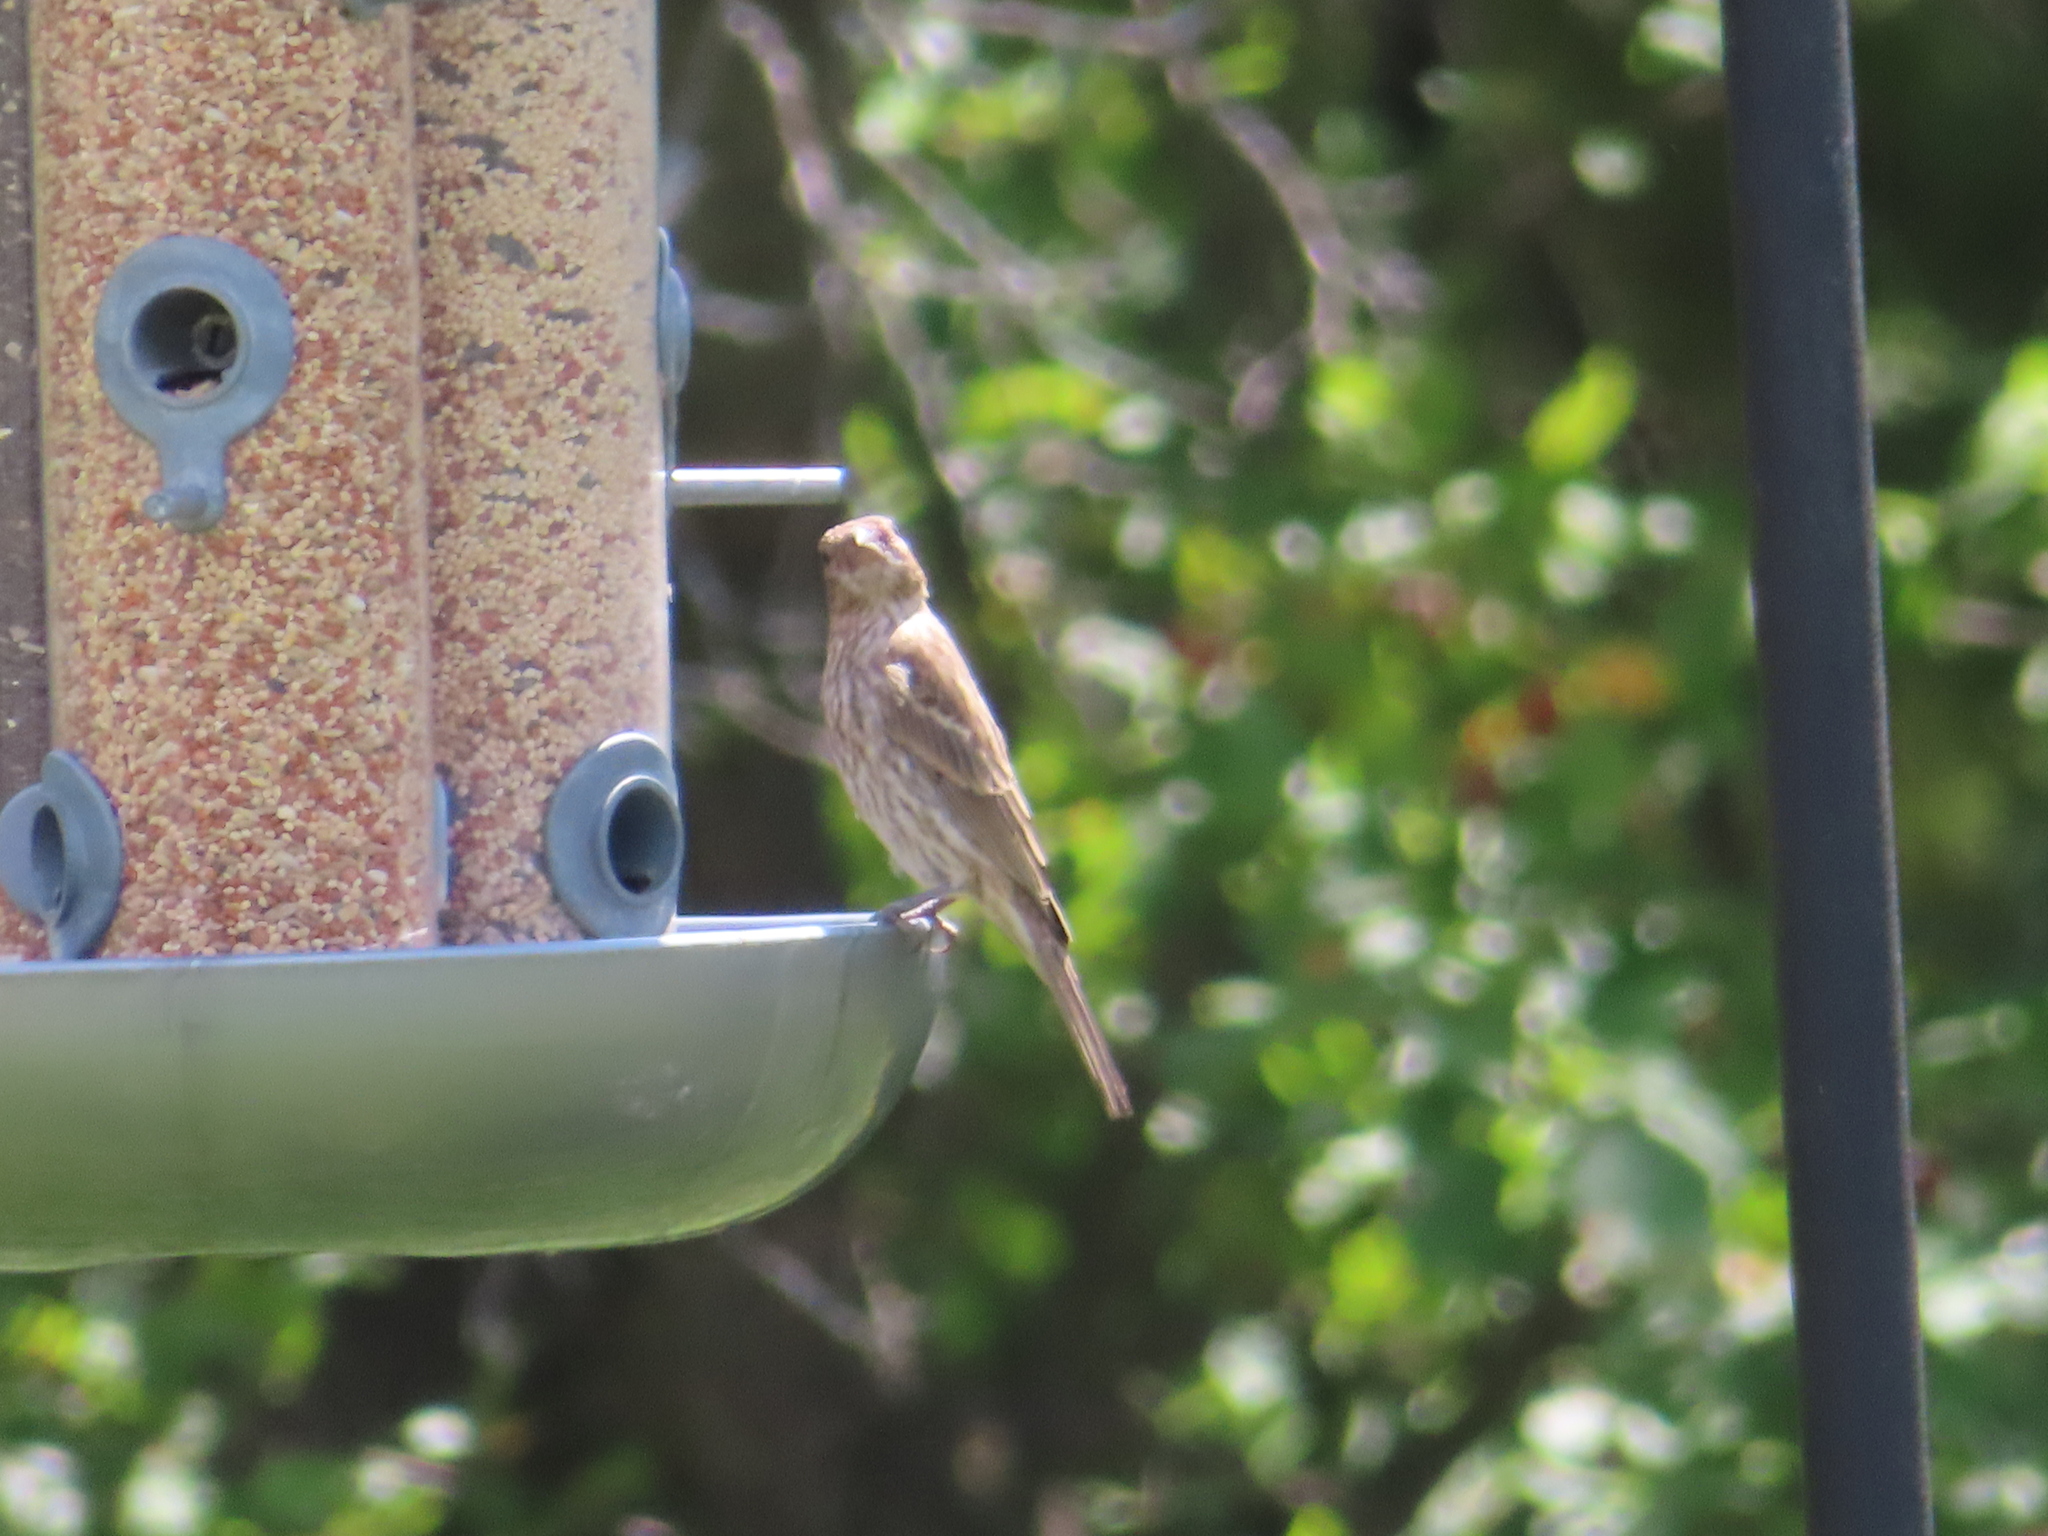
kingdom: Animalia
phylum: Chordata
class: Aves
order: Passeriformes
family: Fringillidae
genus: Haemorhous
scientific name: Haemorhous mexicanus
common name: House finch
